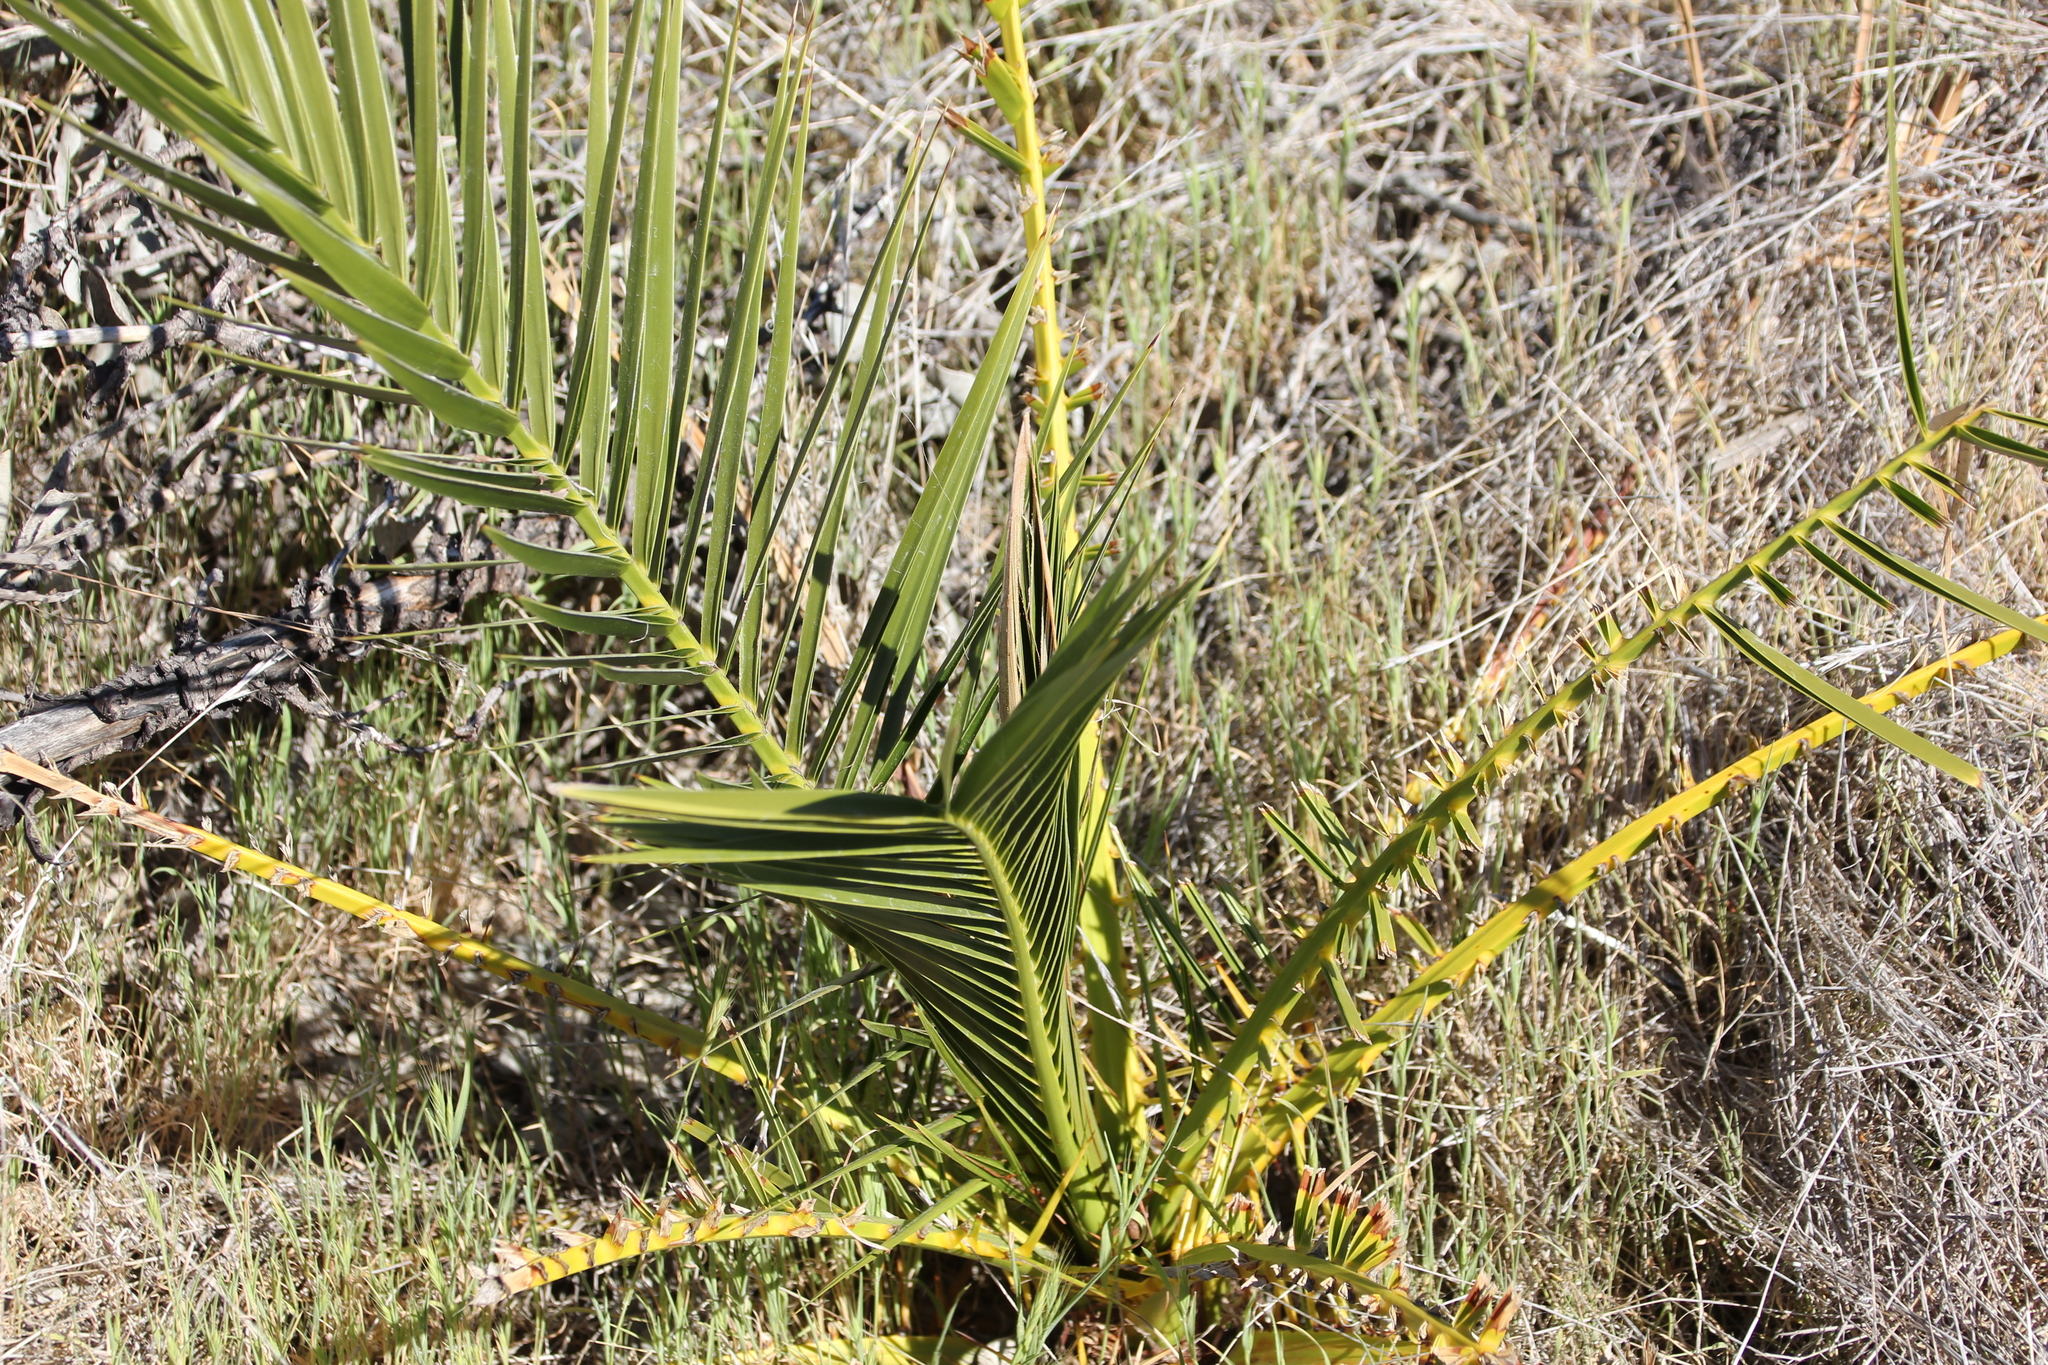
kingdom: Plantae
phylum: Tracheophyta
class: Liliopsida
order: Arecales
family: Arecaceae
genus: Phoenix
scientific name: Phoenix canariensis
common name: Canary island date palm
